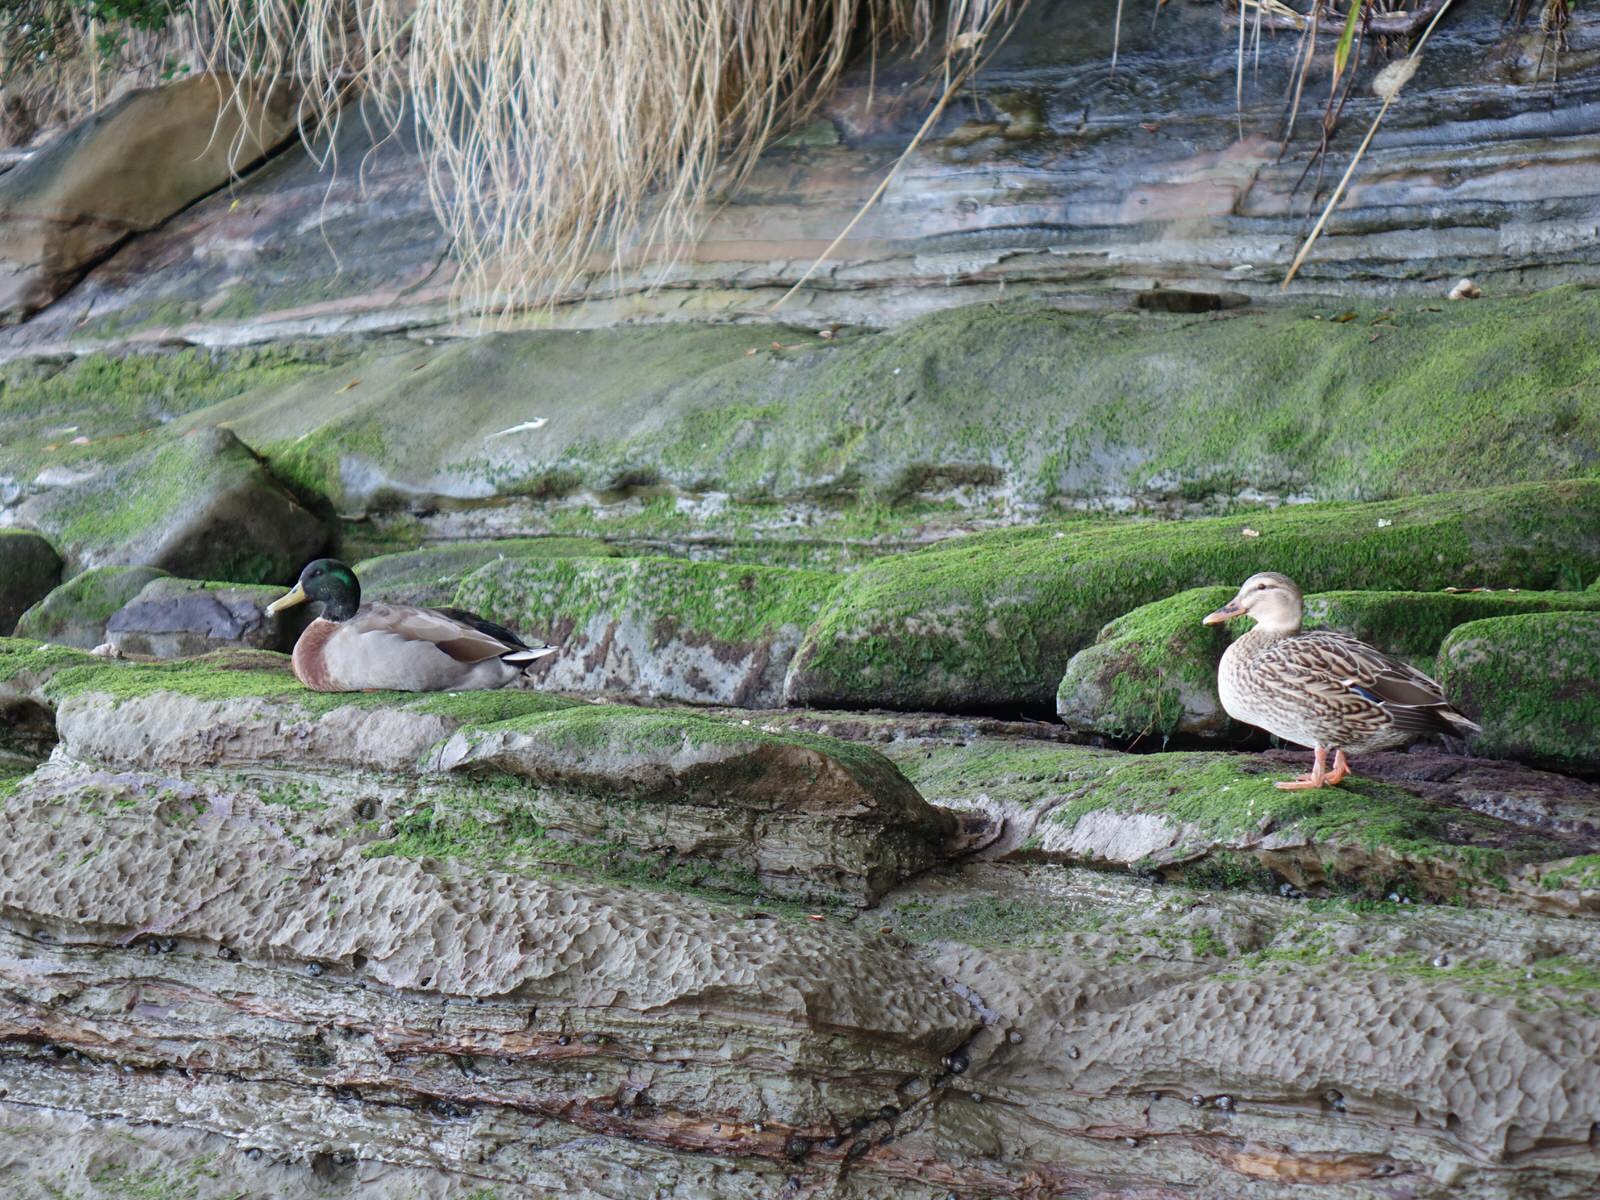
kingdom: Animalia
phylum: Chordata
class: Aves
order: Anseriformes
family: Anatidae
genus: Anas
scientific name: Anas platyrhynchos
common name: Mallard
